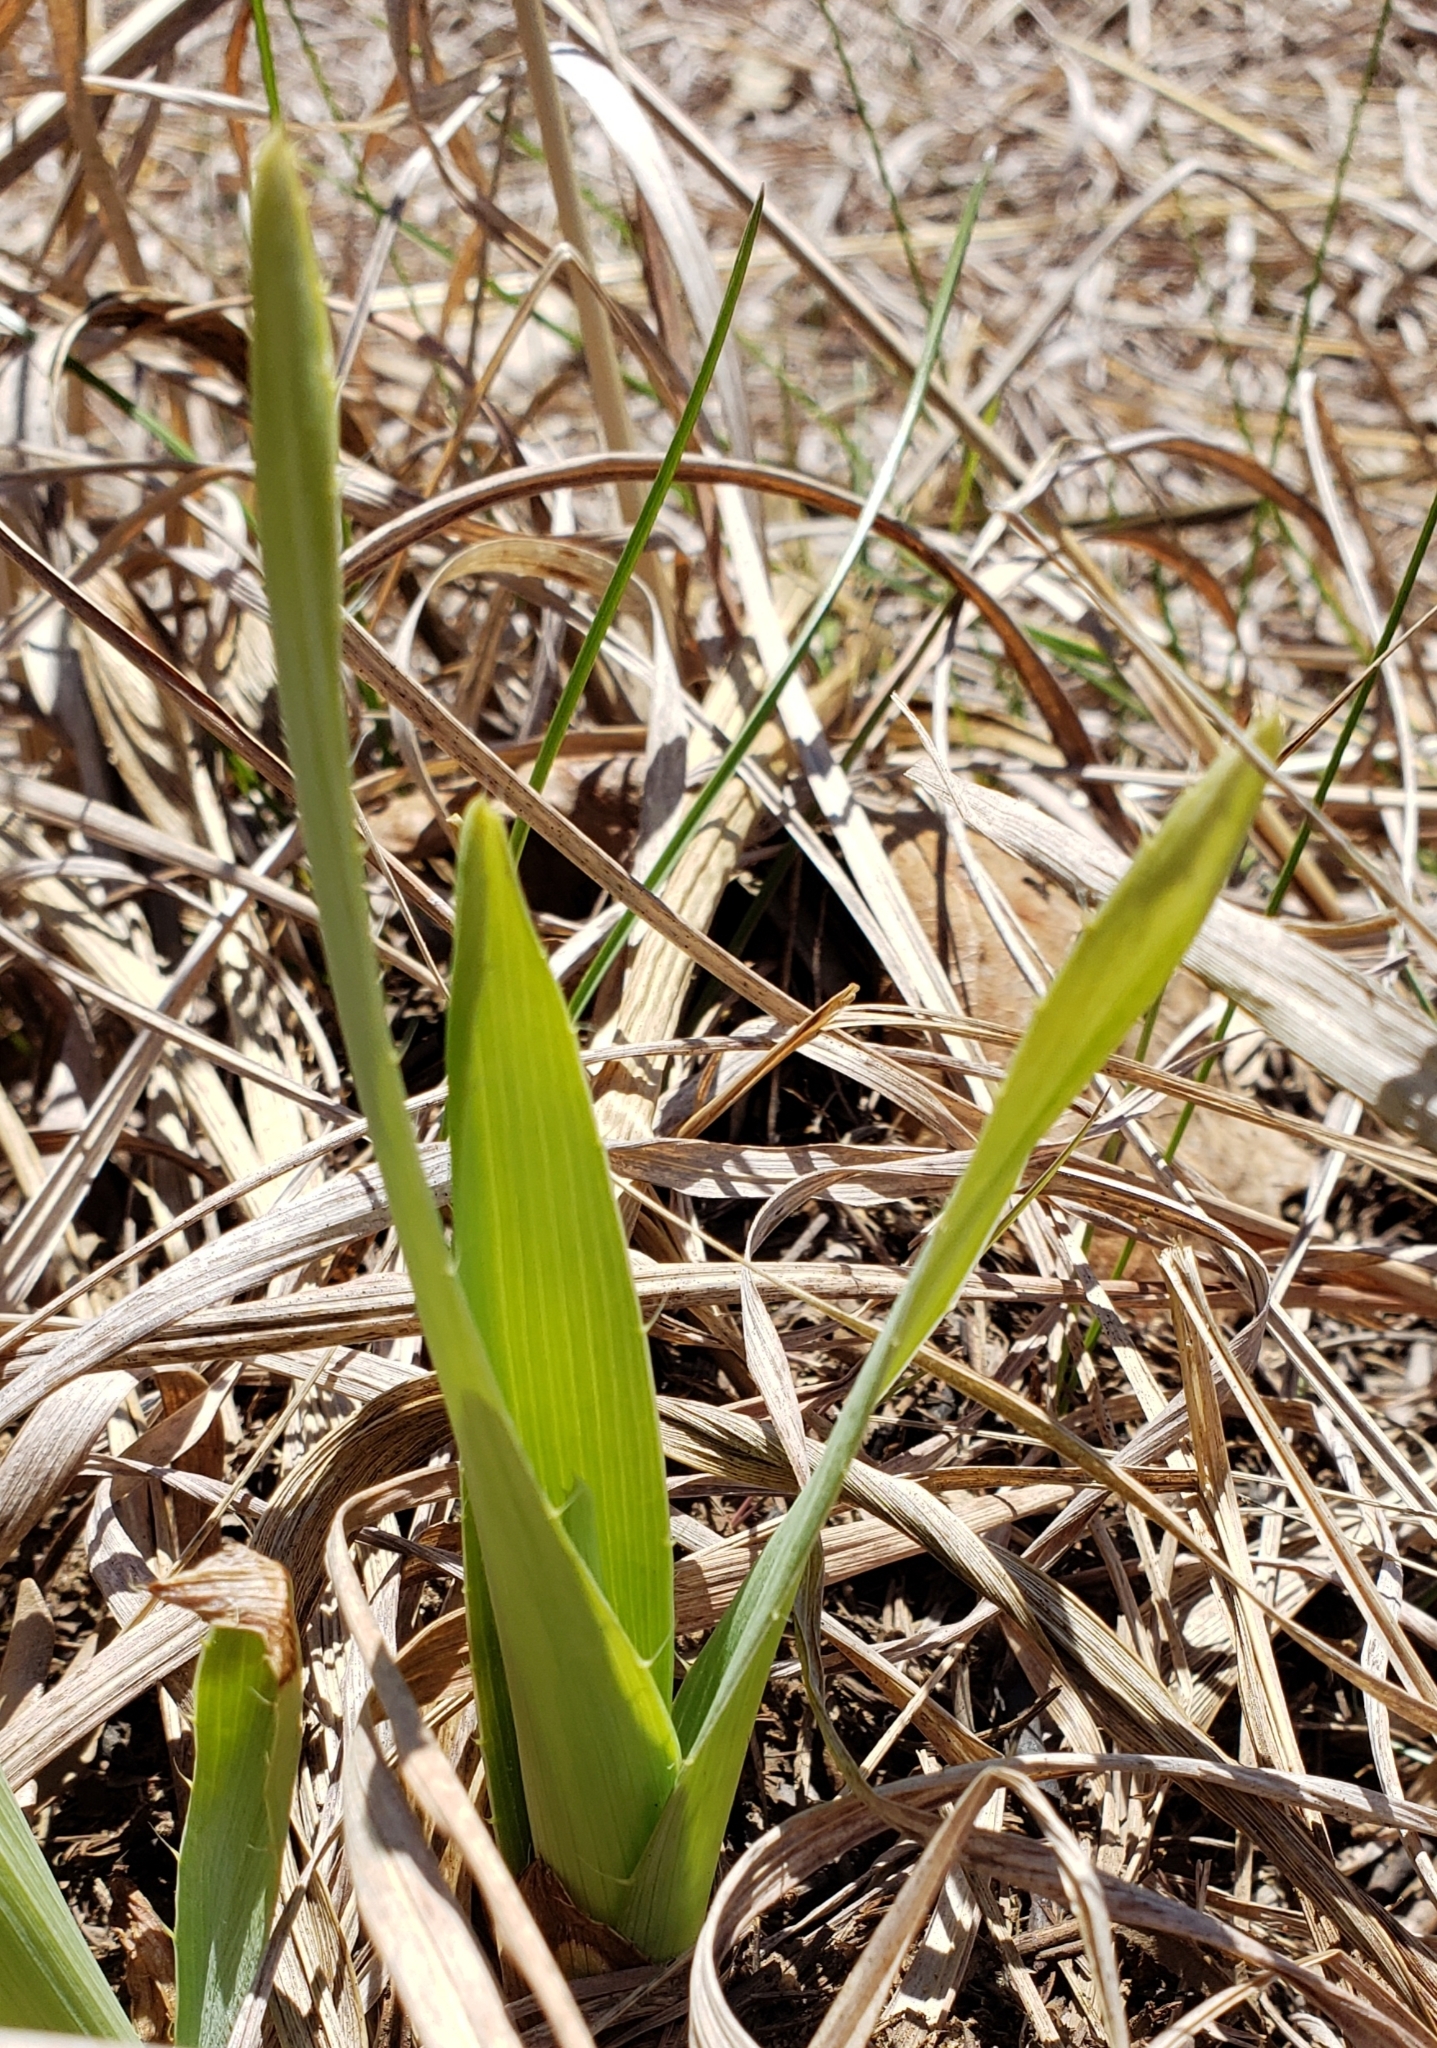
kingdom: Plantae
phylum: Tracheophyta
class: Magnoliopsida
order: Apiales
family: Apiaceae
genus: Eryngium
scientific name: Eryngium yuccifolium
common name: Button eryngo
